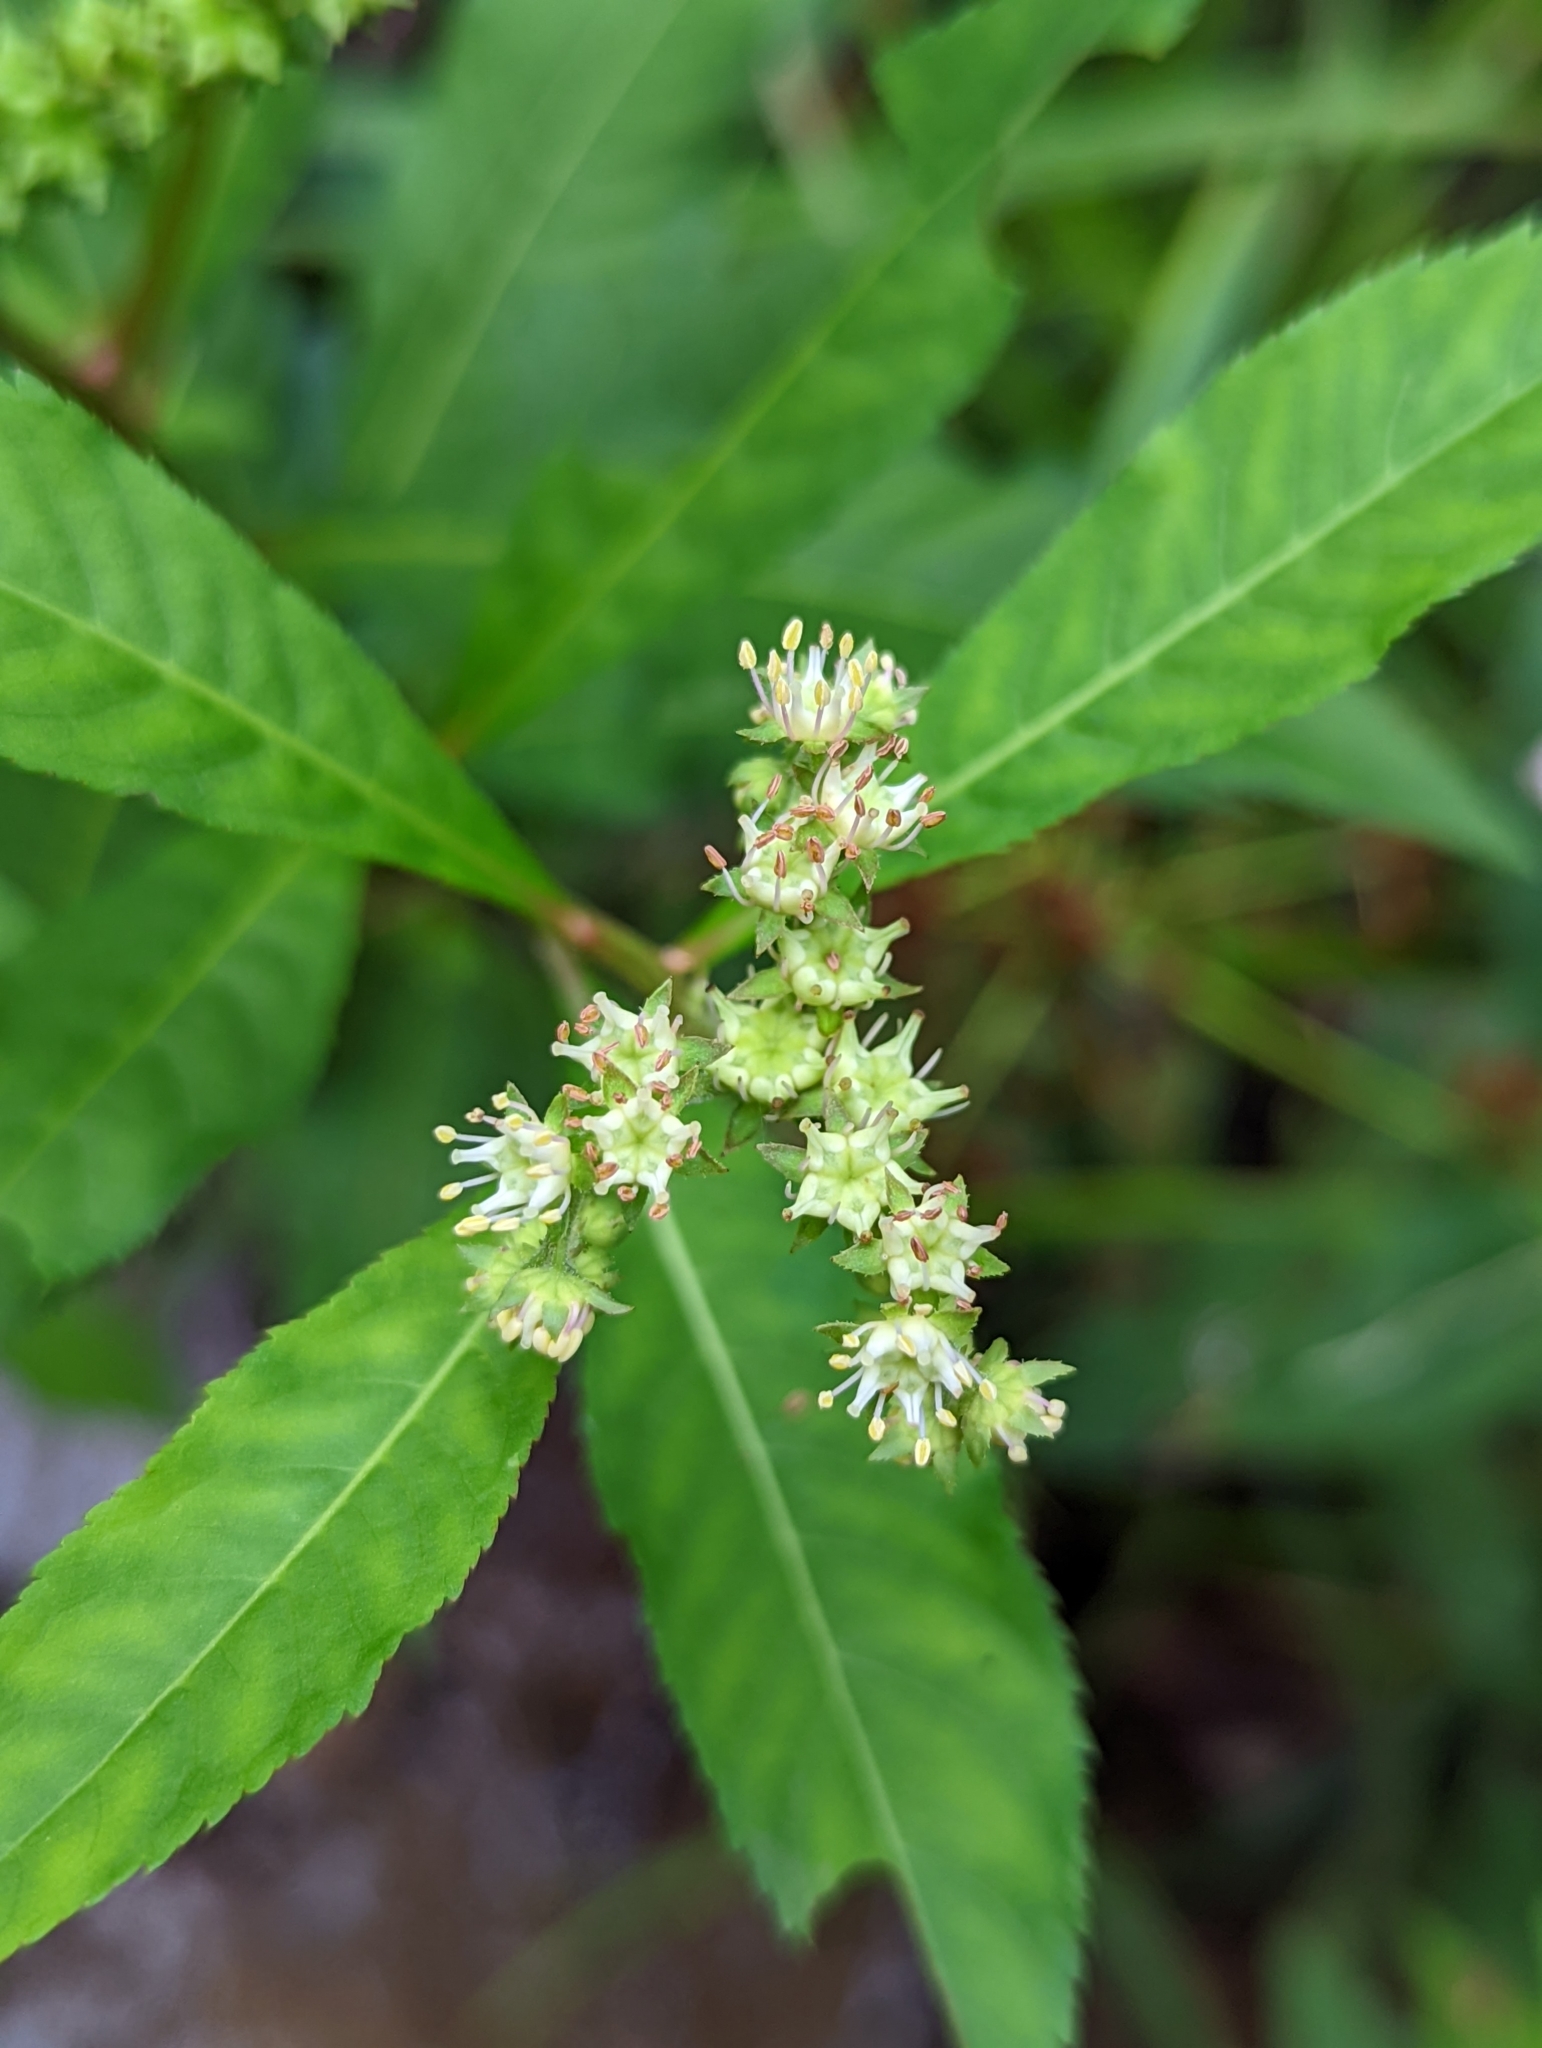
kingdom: Plantae
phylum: Tracheophyta
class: Magnoliopsida
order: Saxifragales
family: Penthoraceae
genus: Penthorum
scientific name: Penthorum sedoides
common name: Ditch stonecrop
